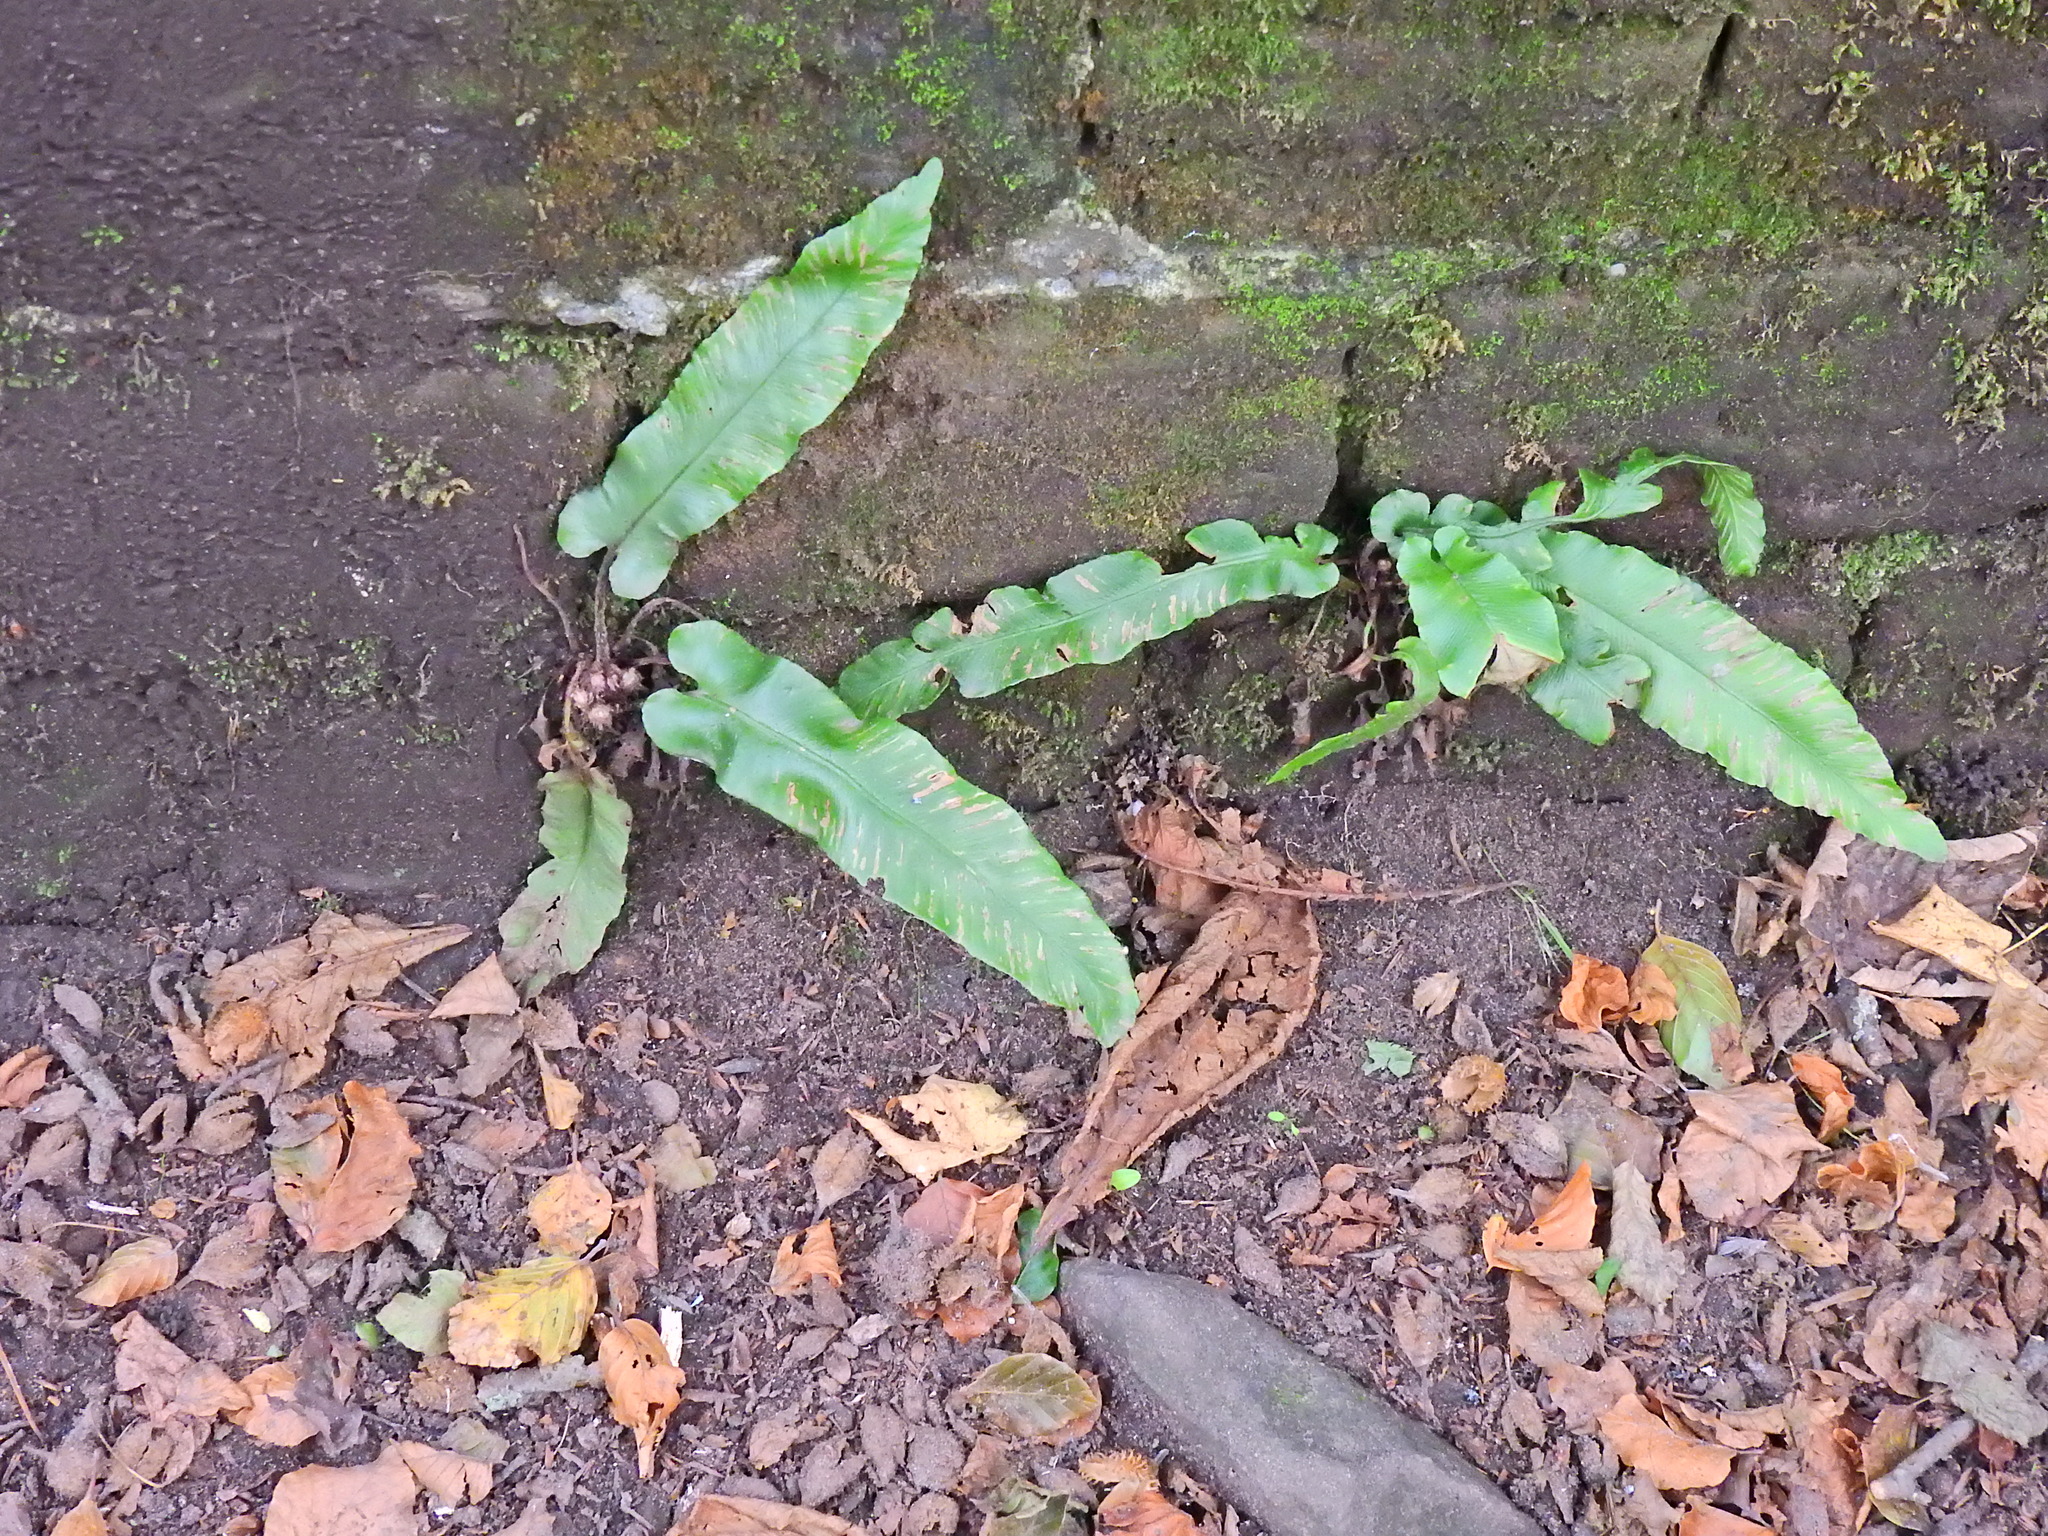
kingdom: Plantae
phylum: Tracheophyta
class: Polypodiopsida
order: Polypodiales
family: Aspleniaceae
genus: Asplenium
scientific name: Asplenium scolopendrium
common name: Hart's-tongue fern
